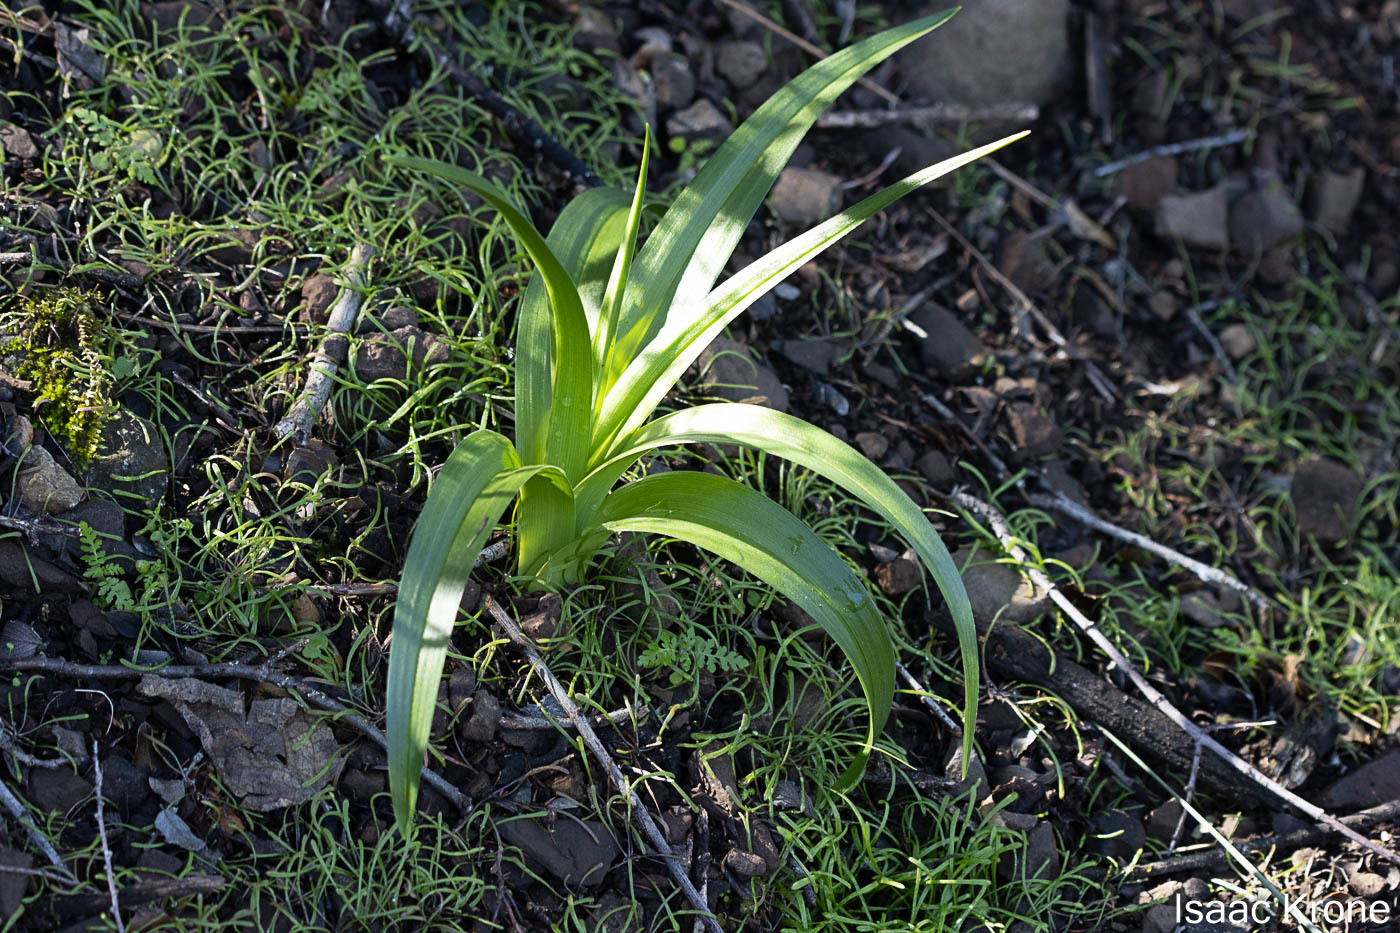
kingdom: Plantae
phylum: Tracheophyta
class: Liliopsida
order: Liliales
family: Melanthiaceae
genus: Toxicoscordion
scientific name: Toxicoscordion fremontii
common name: Fremont's death camas
